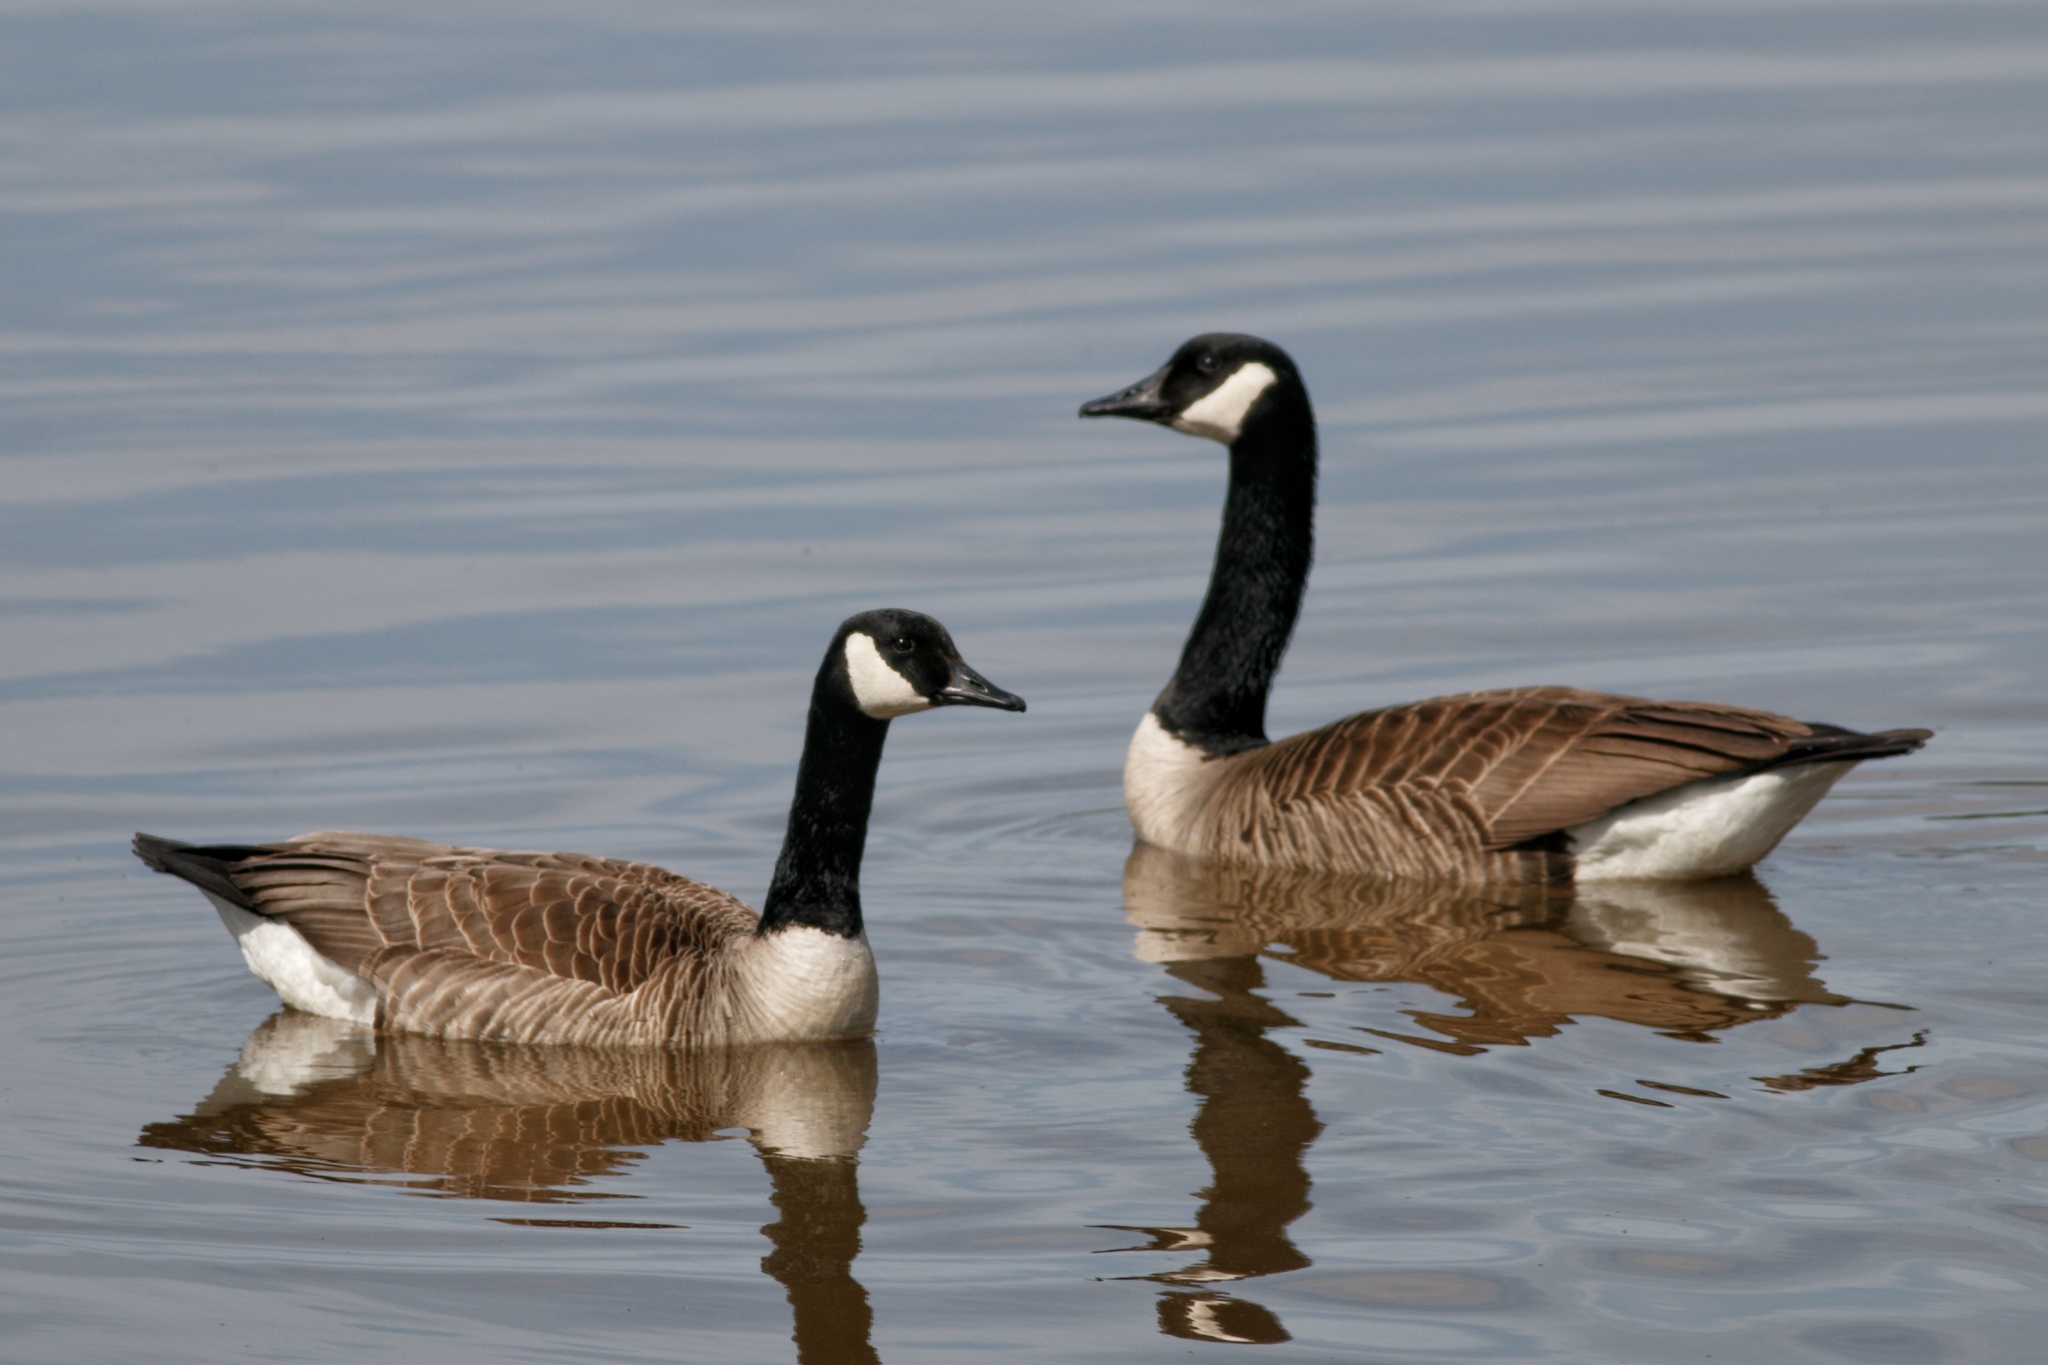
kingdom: Animalia
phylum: Chordata
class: Aves
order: Anseriformes
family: Anatidae
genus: Branta
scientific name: Branta canadensis
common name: Canada goose
